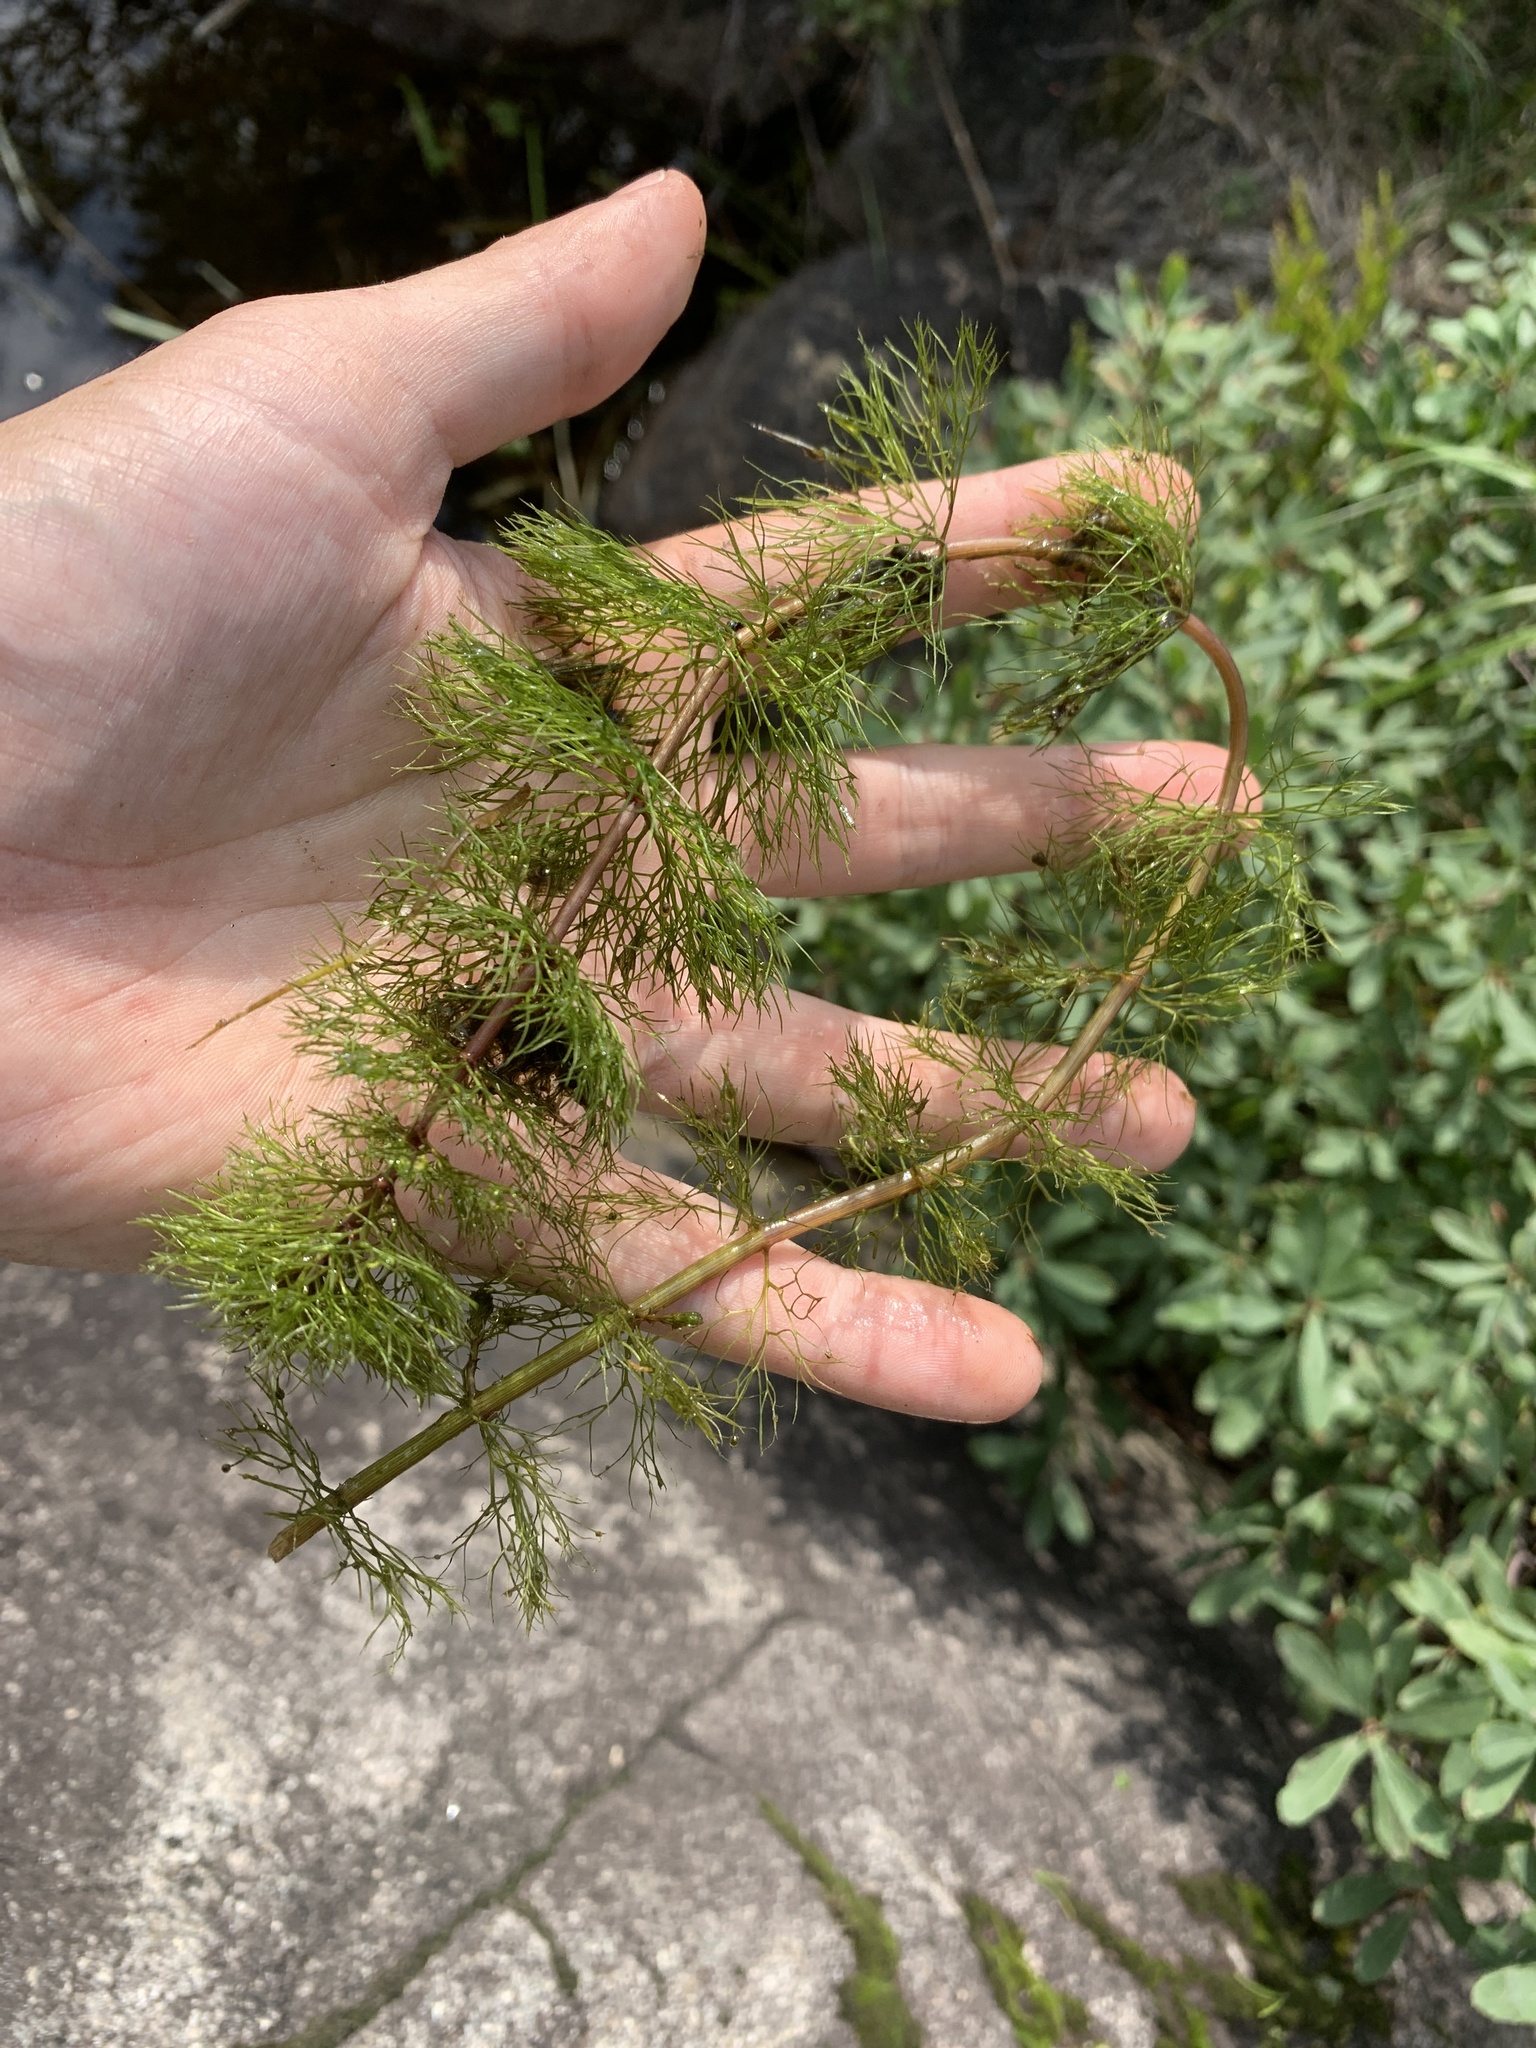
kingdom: Plantae
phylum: Tracheophyta
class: Magnoliopsida
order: Asterales
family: Asteraceae
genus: Bidens
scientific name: Bidens beckii
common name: Beck's beggarticks
